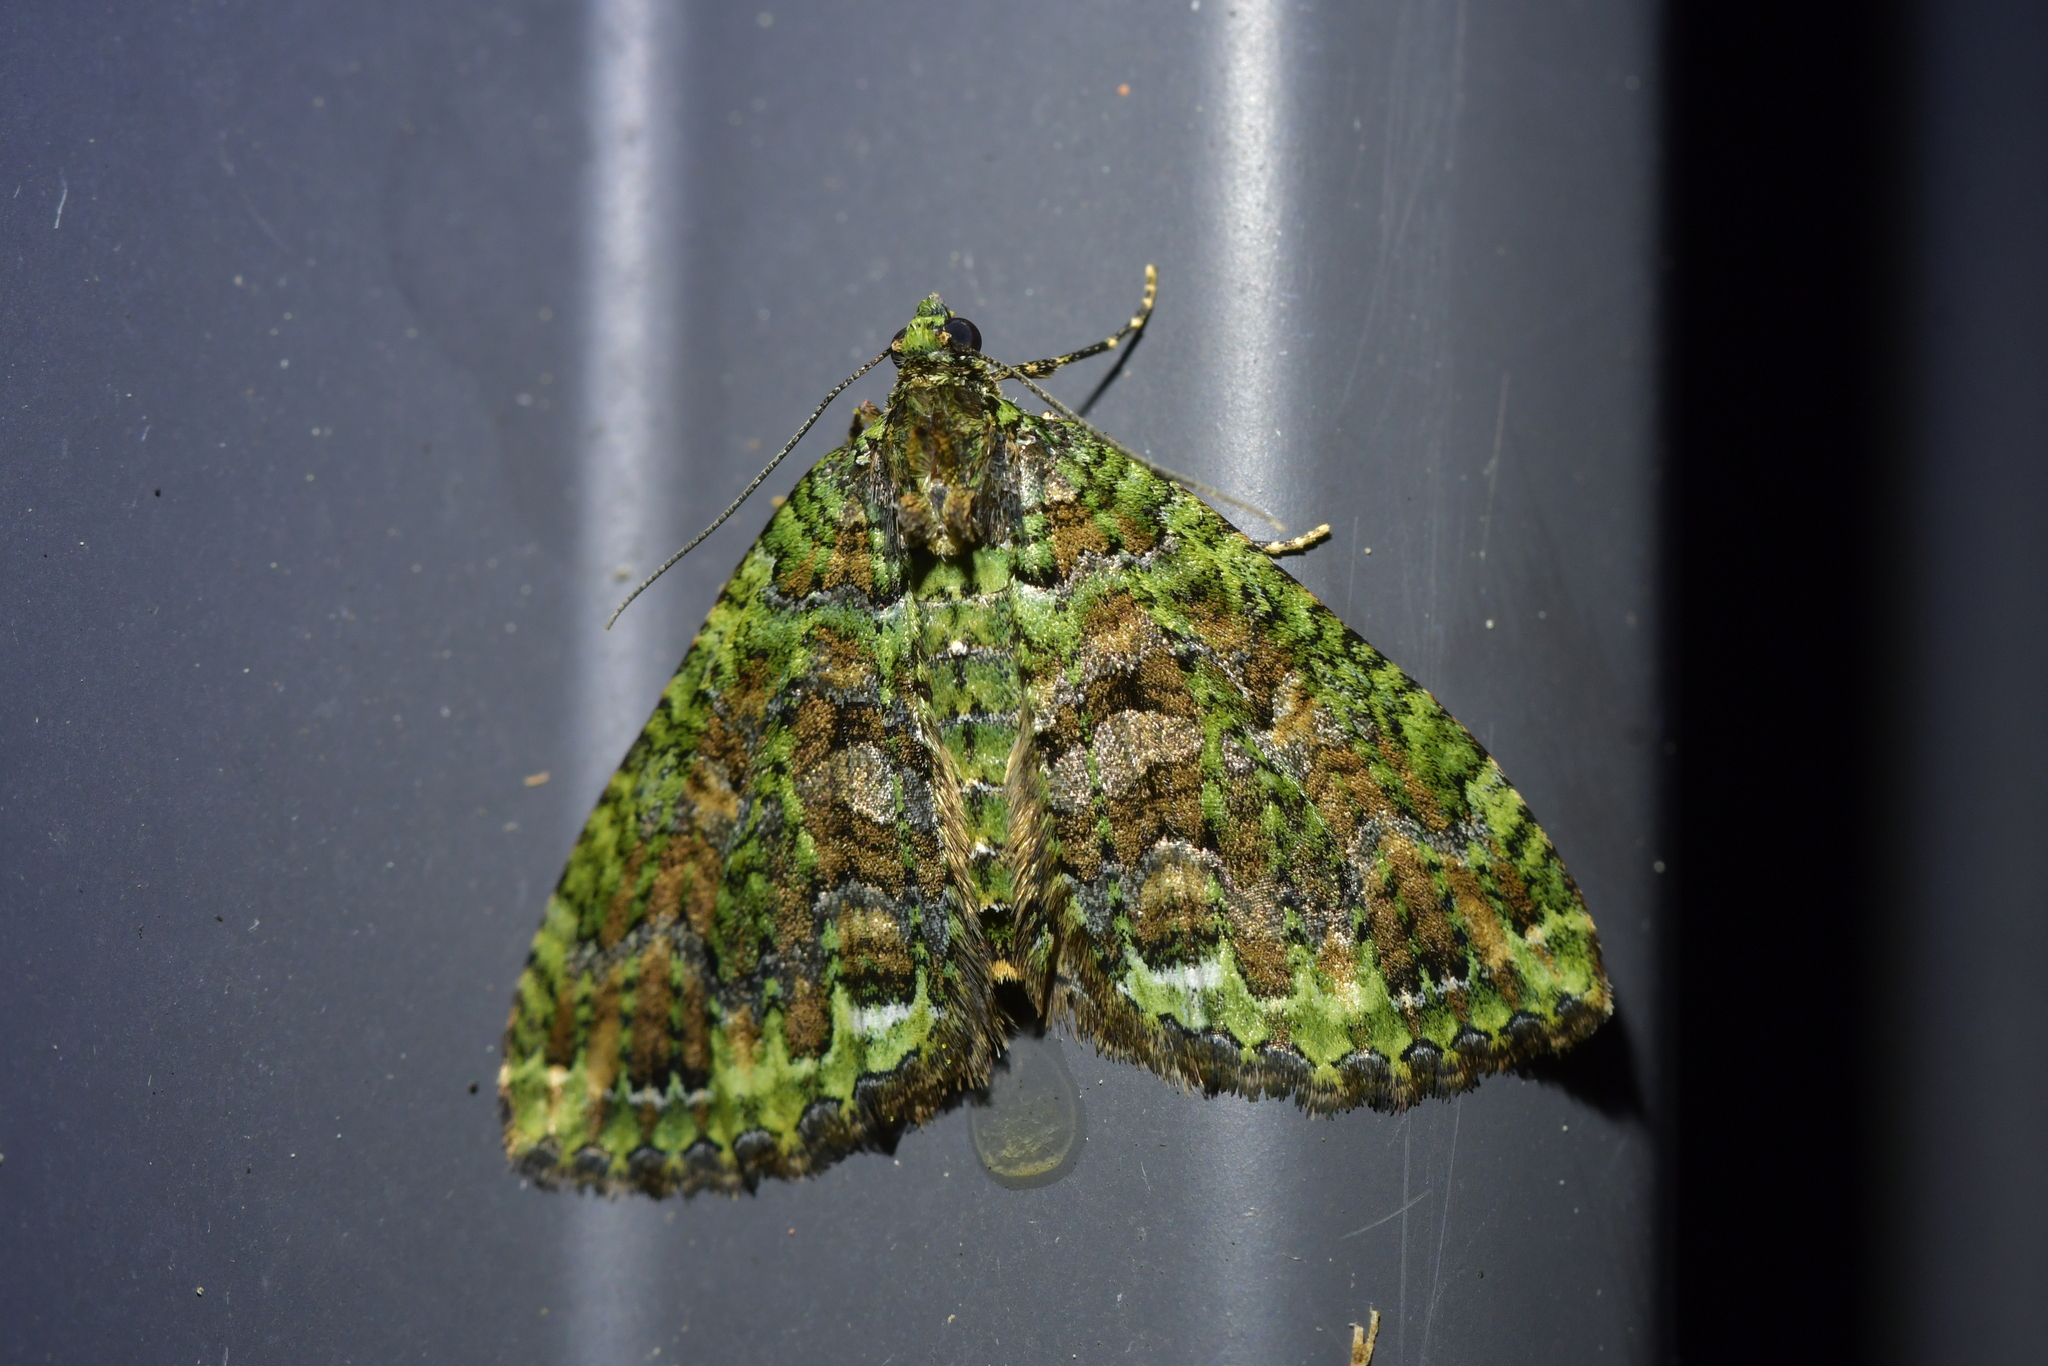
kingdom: Animalia
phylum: Arthropoda
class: Insecta
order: Lepidoptera
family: Geometridae
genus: Austrocidaria
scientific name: Austrocidaria similata
